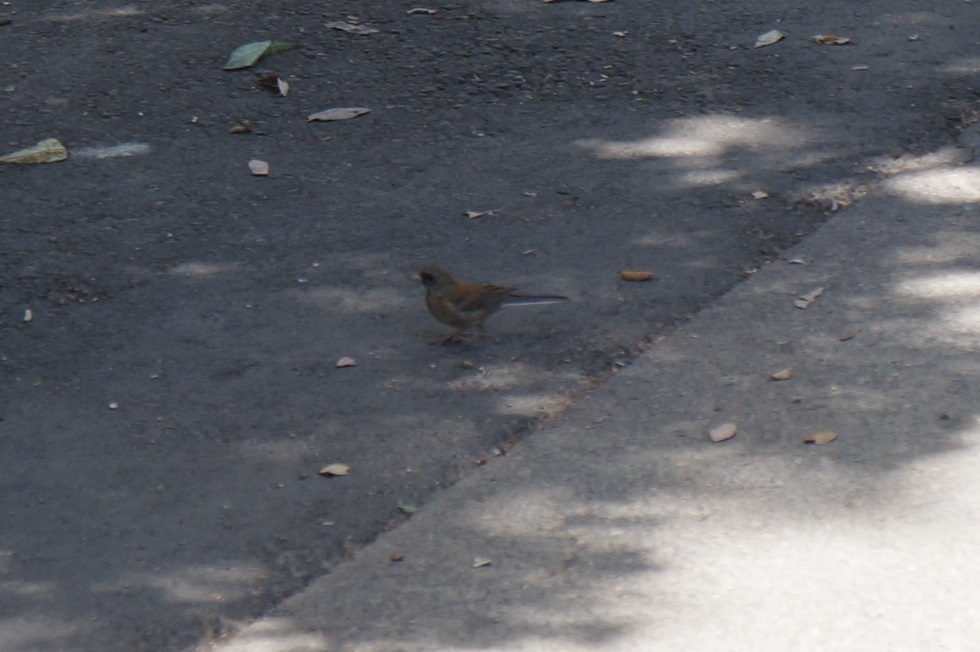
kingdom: Animalia
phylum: Chordata
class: Aves
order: Passeriformes
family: Passerellidae
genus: Junco
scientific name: Junco hyemalis
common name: Dark-eyed junco
